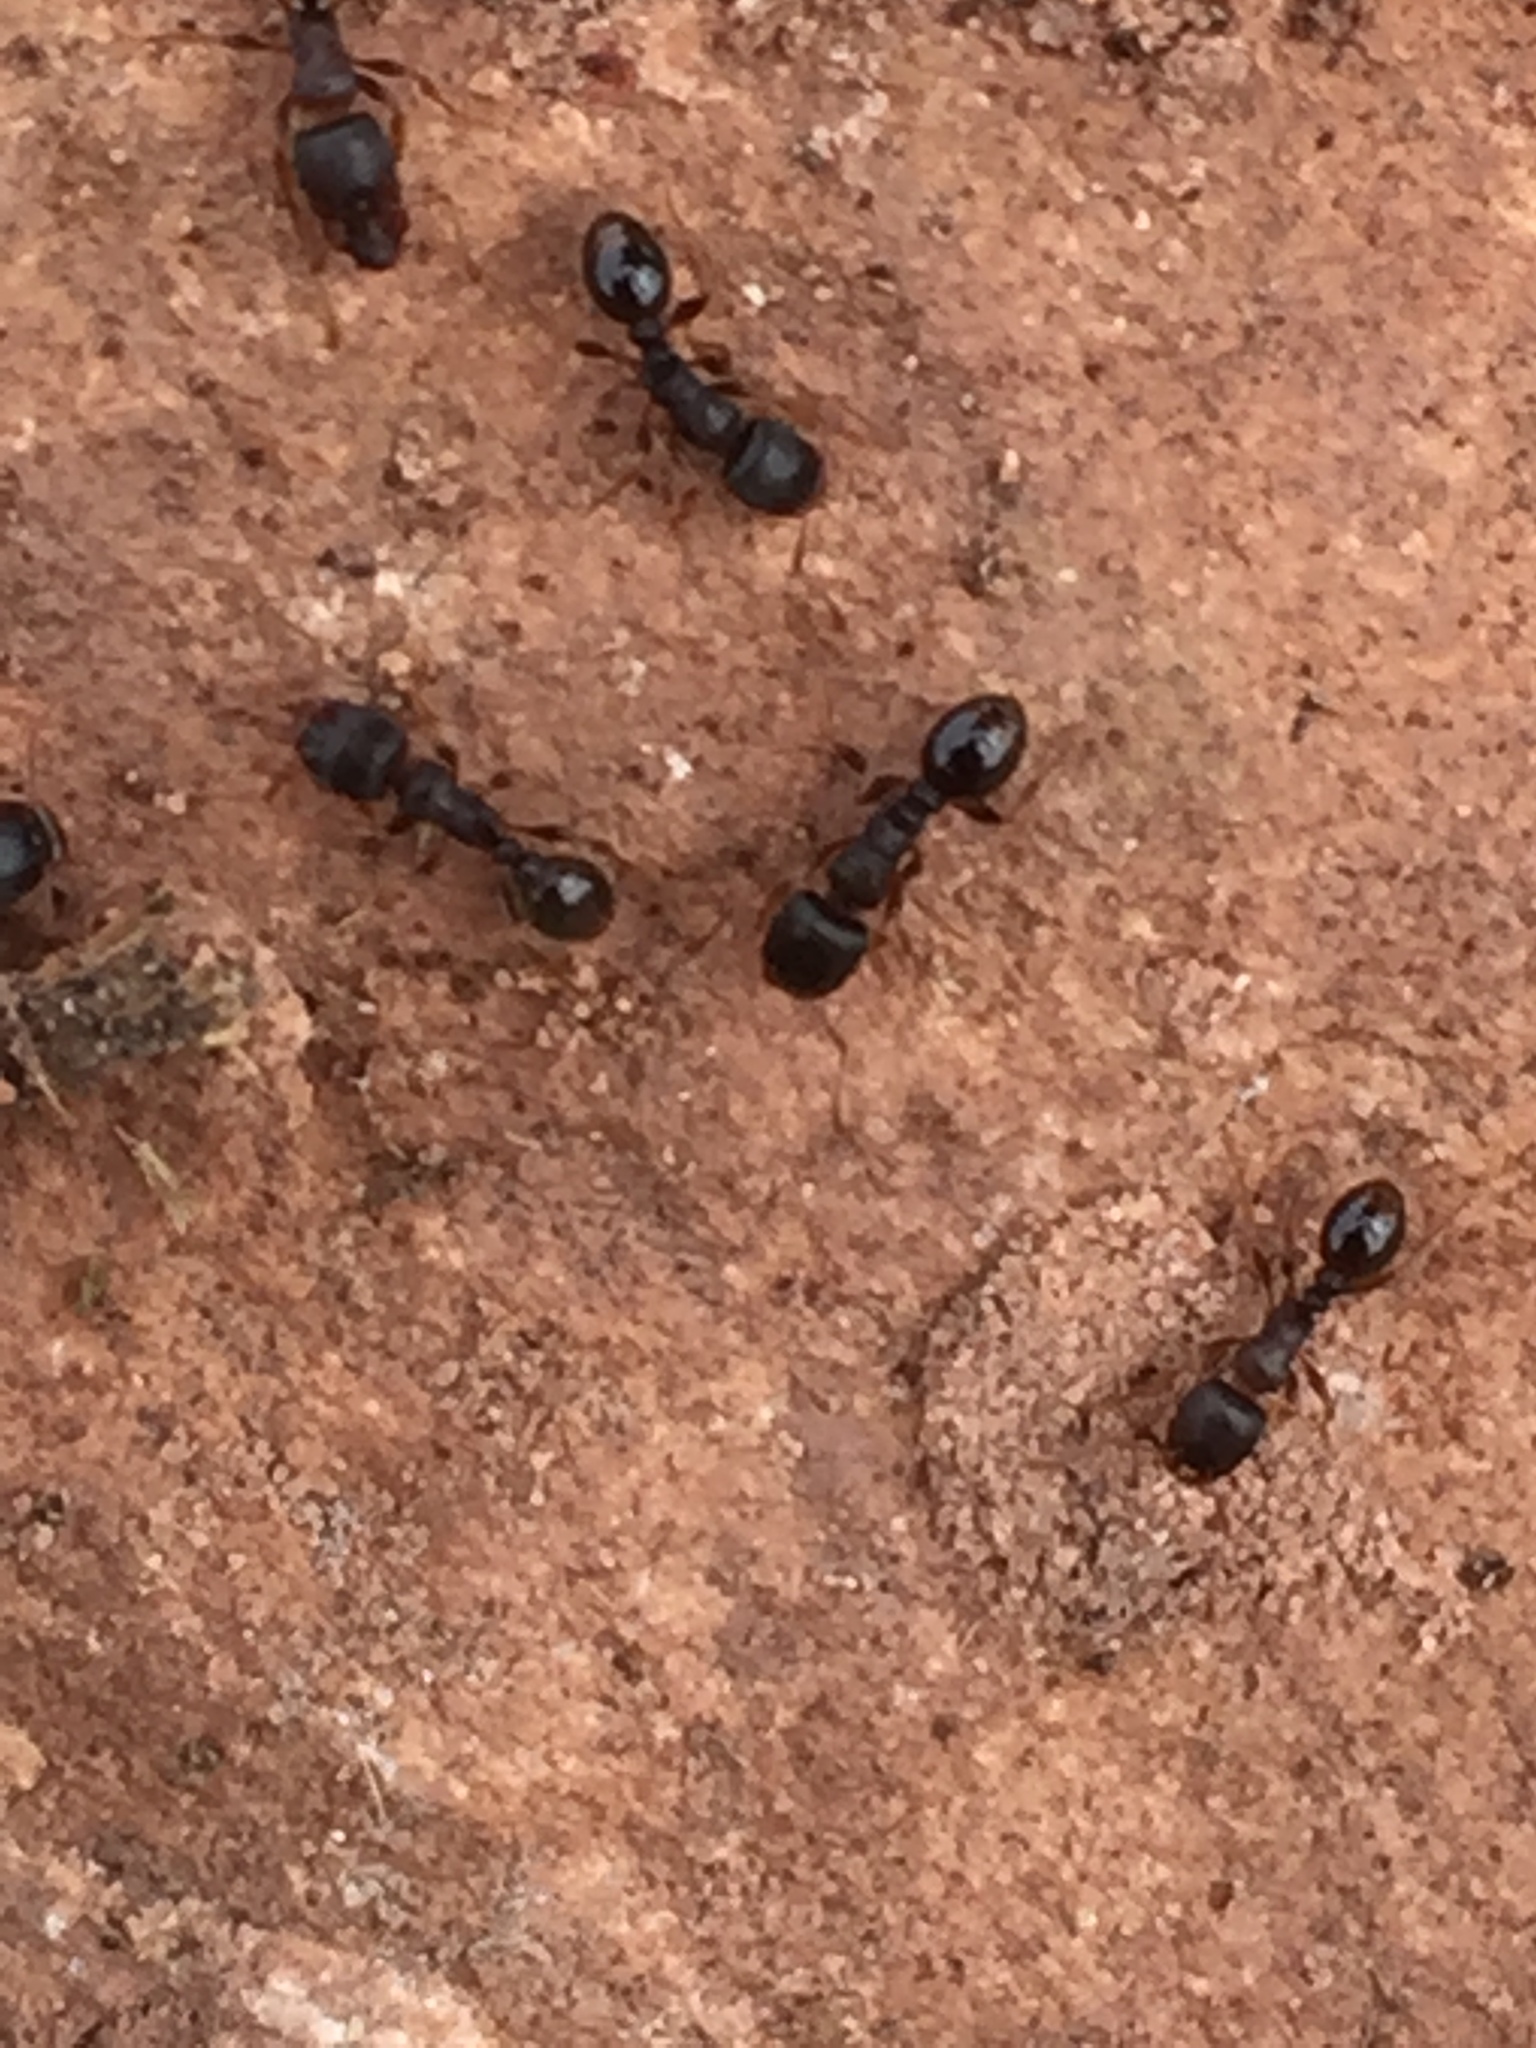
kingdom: Animalia
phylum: Arthropoda
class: Insecta
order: Hymenoptera
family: Formicidae
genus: Tetramorium
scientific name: Tetramorium immigrans
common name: Pavement ant
